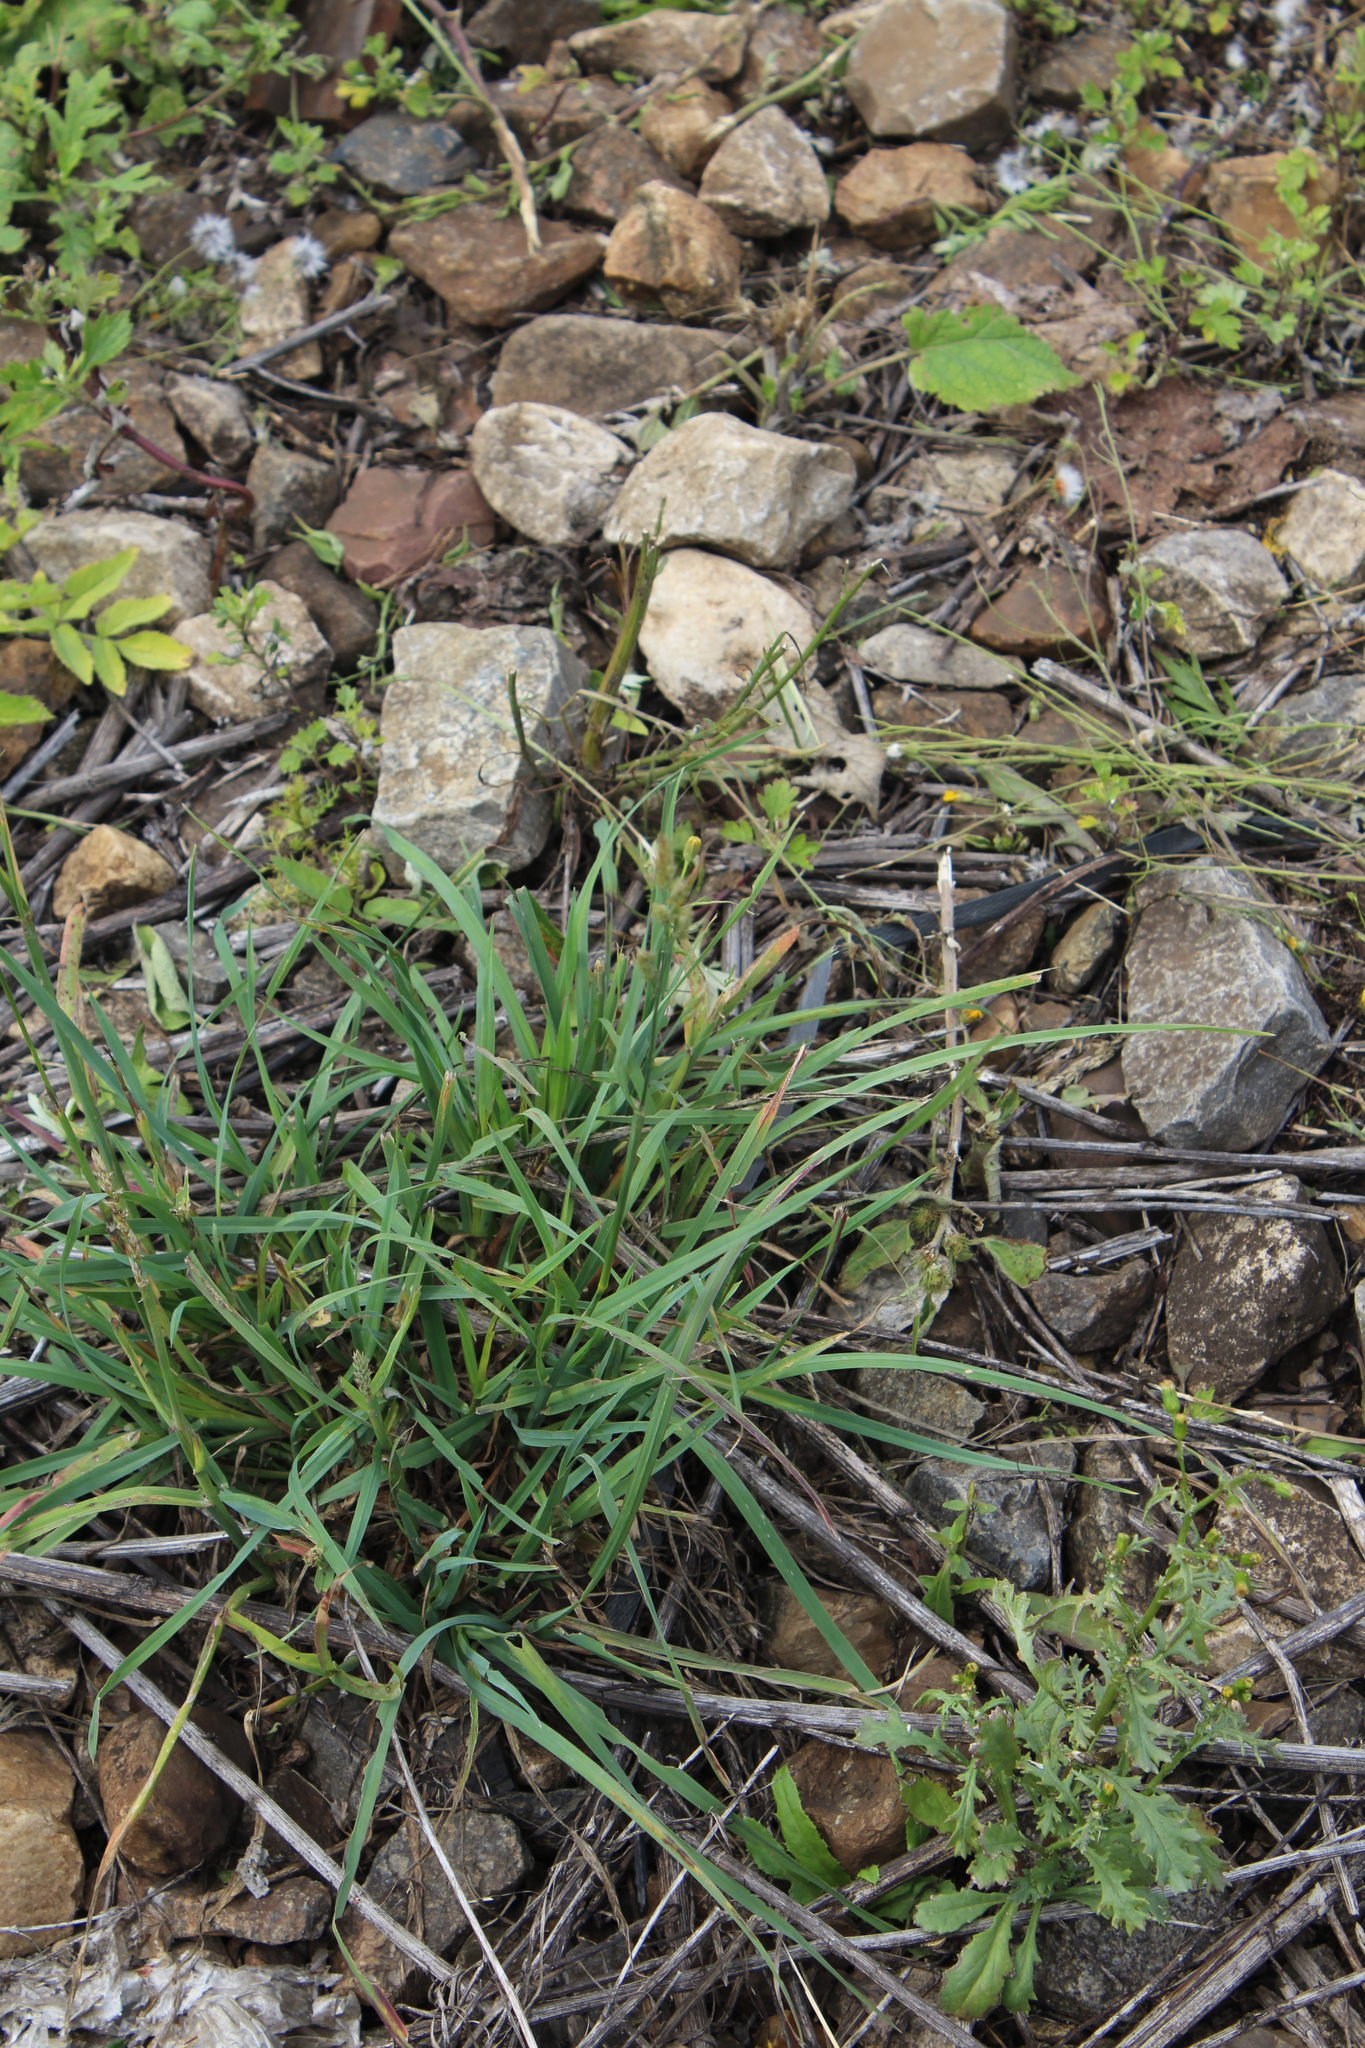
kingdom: Plantae
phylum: Tracheophyta
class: Liliopsida
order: Poales
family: Poaceae
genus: Dactylis
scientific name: Dactylis glomerata
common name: Orchardgrass
